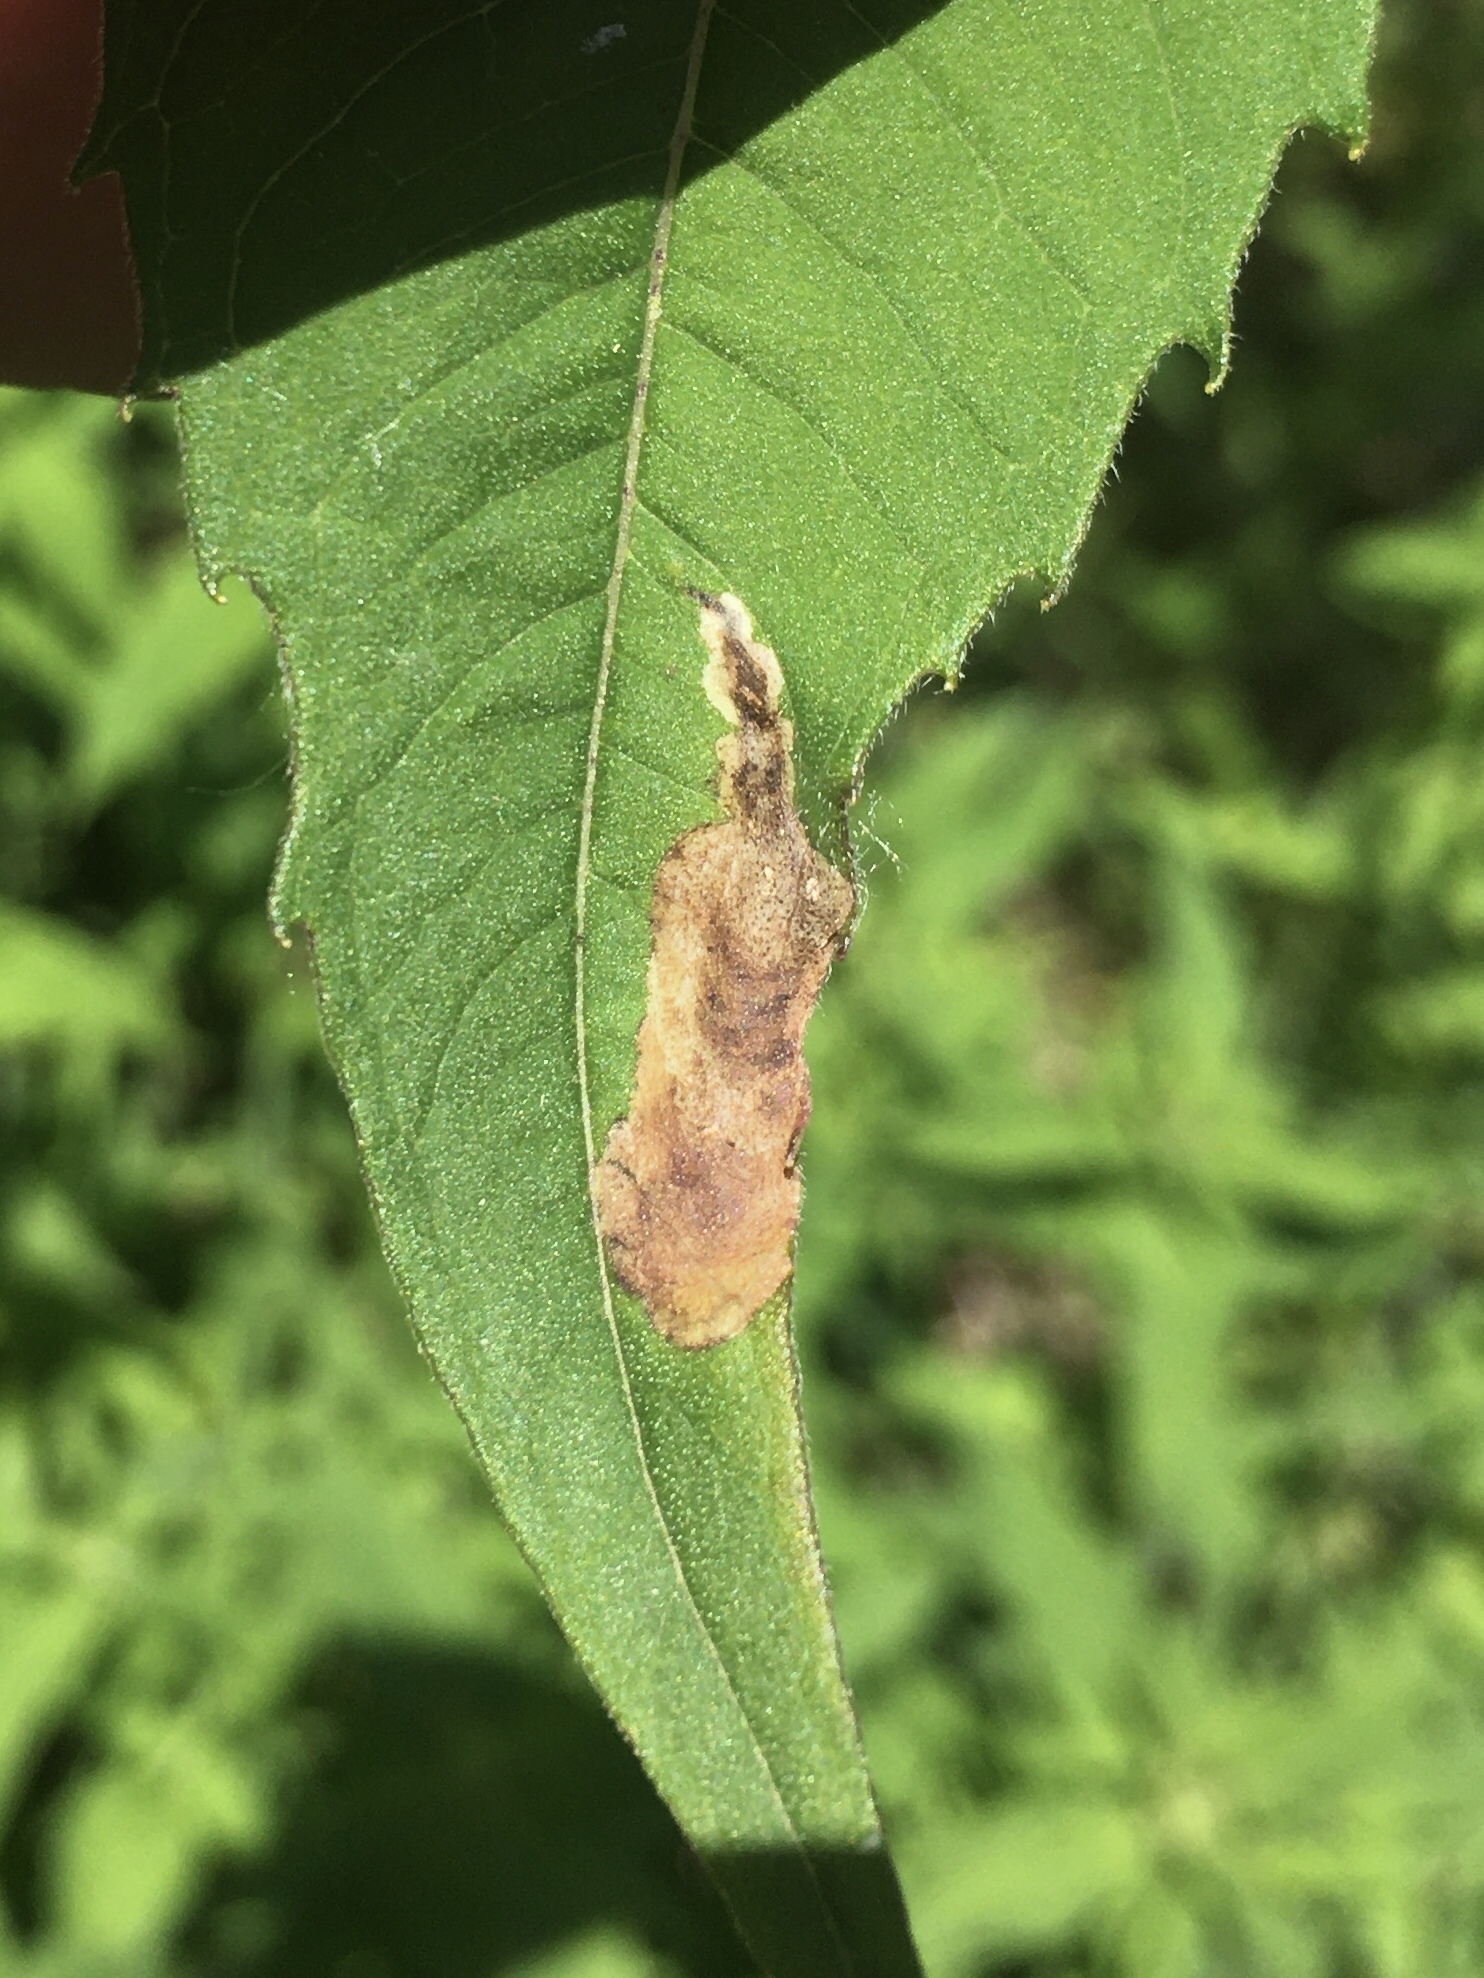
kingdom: Animalia
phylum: Arthropoda
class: Insecta
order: Diptera
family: Agromyzidae
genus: Calycomyza
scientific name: Calycomyza menthae
